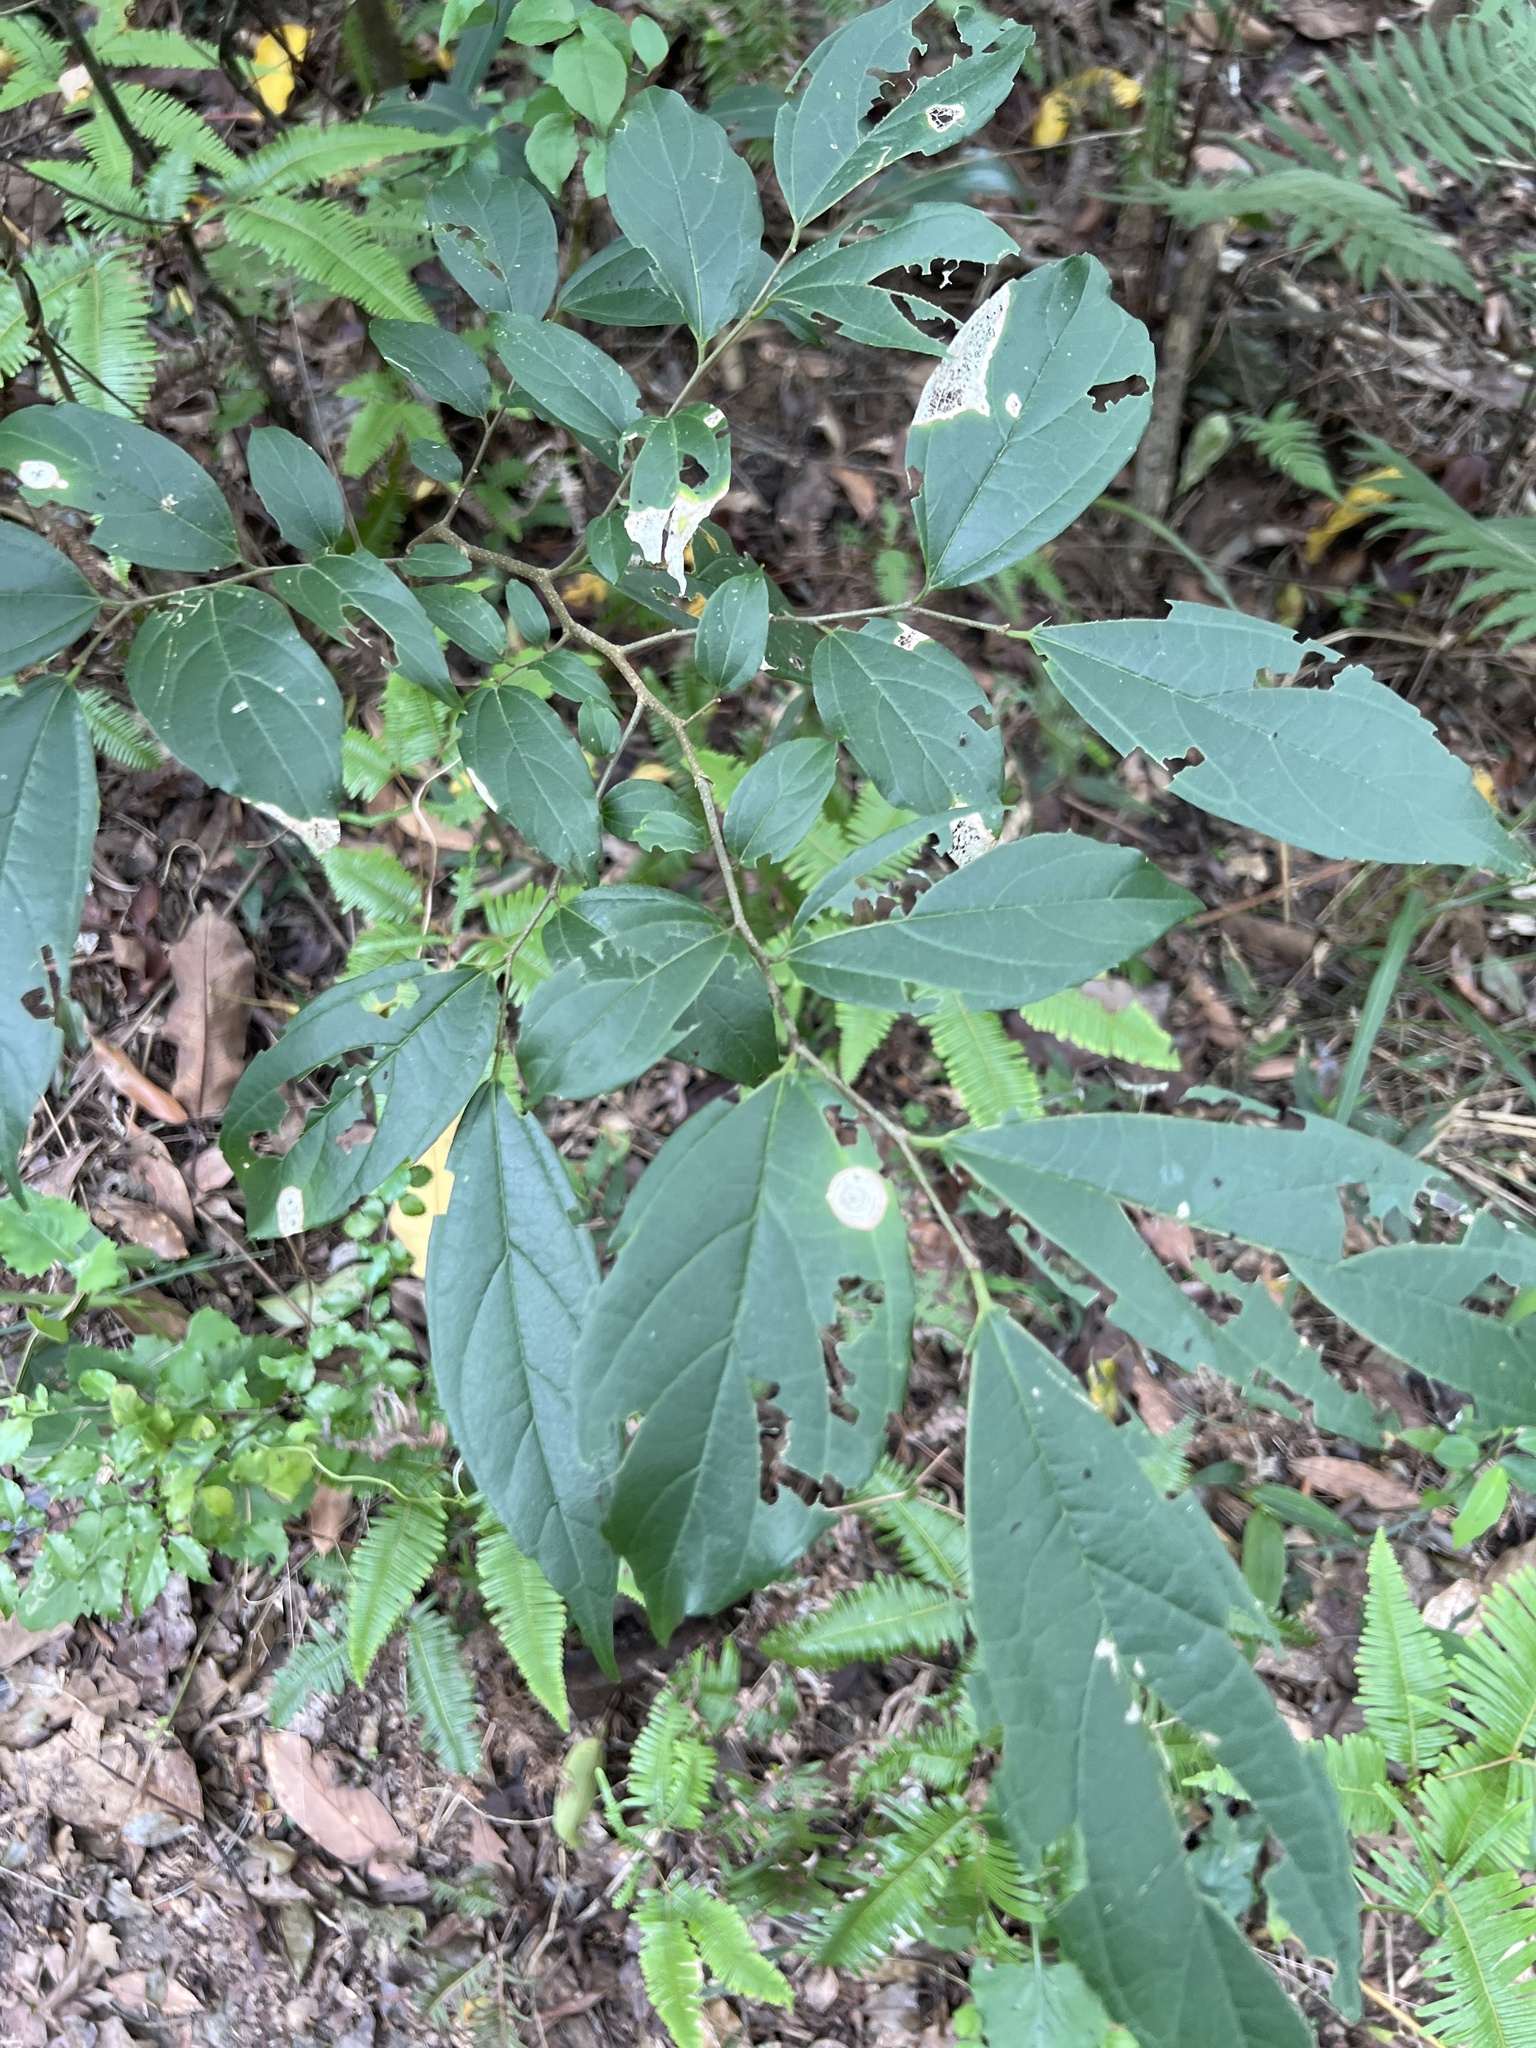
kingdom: Plantae
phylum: Tracheophyta
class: Magnoliopsida
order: Rosales
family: Cannabaceae
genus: Celtis
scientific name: Celtis tetrandra
